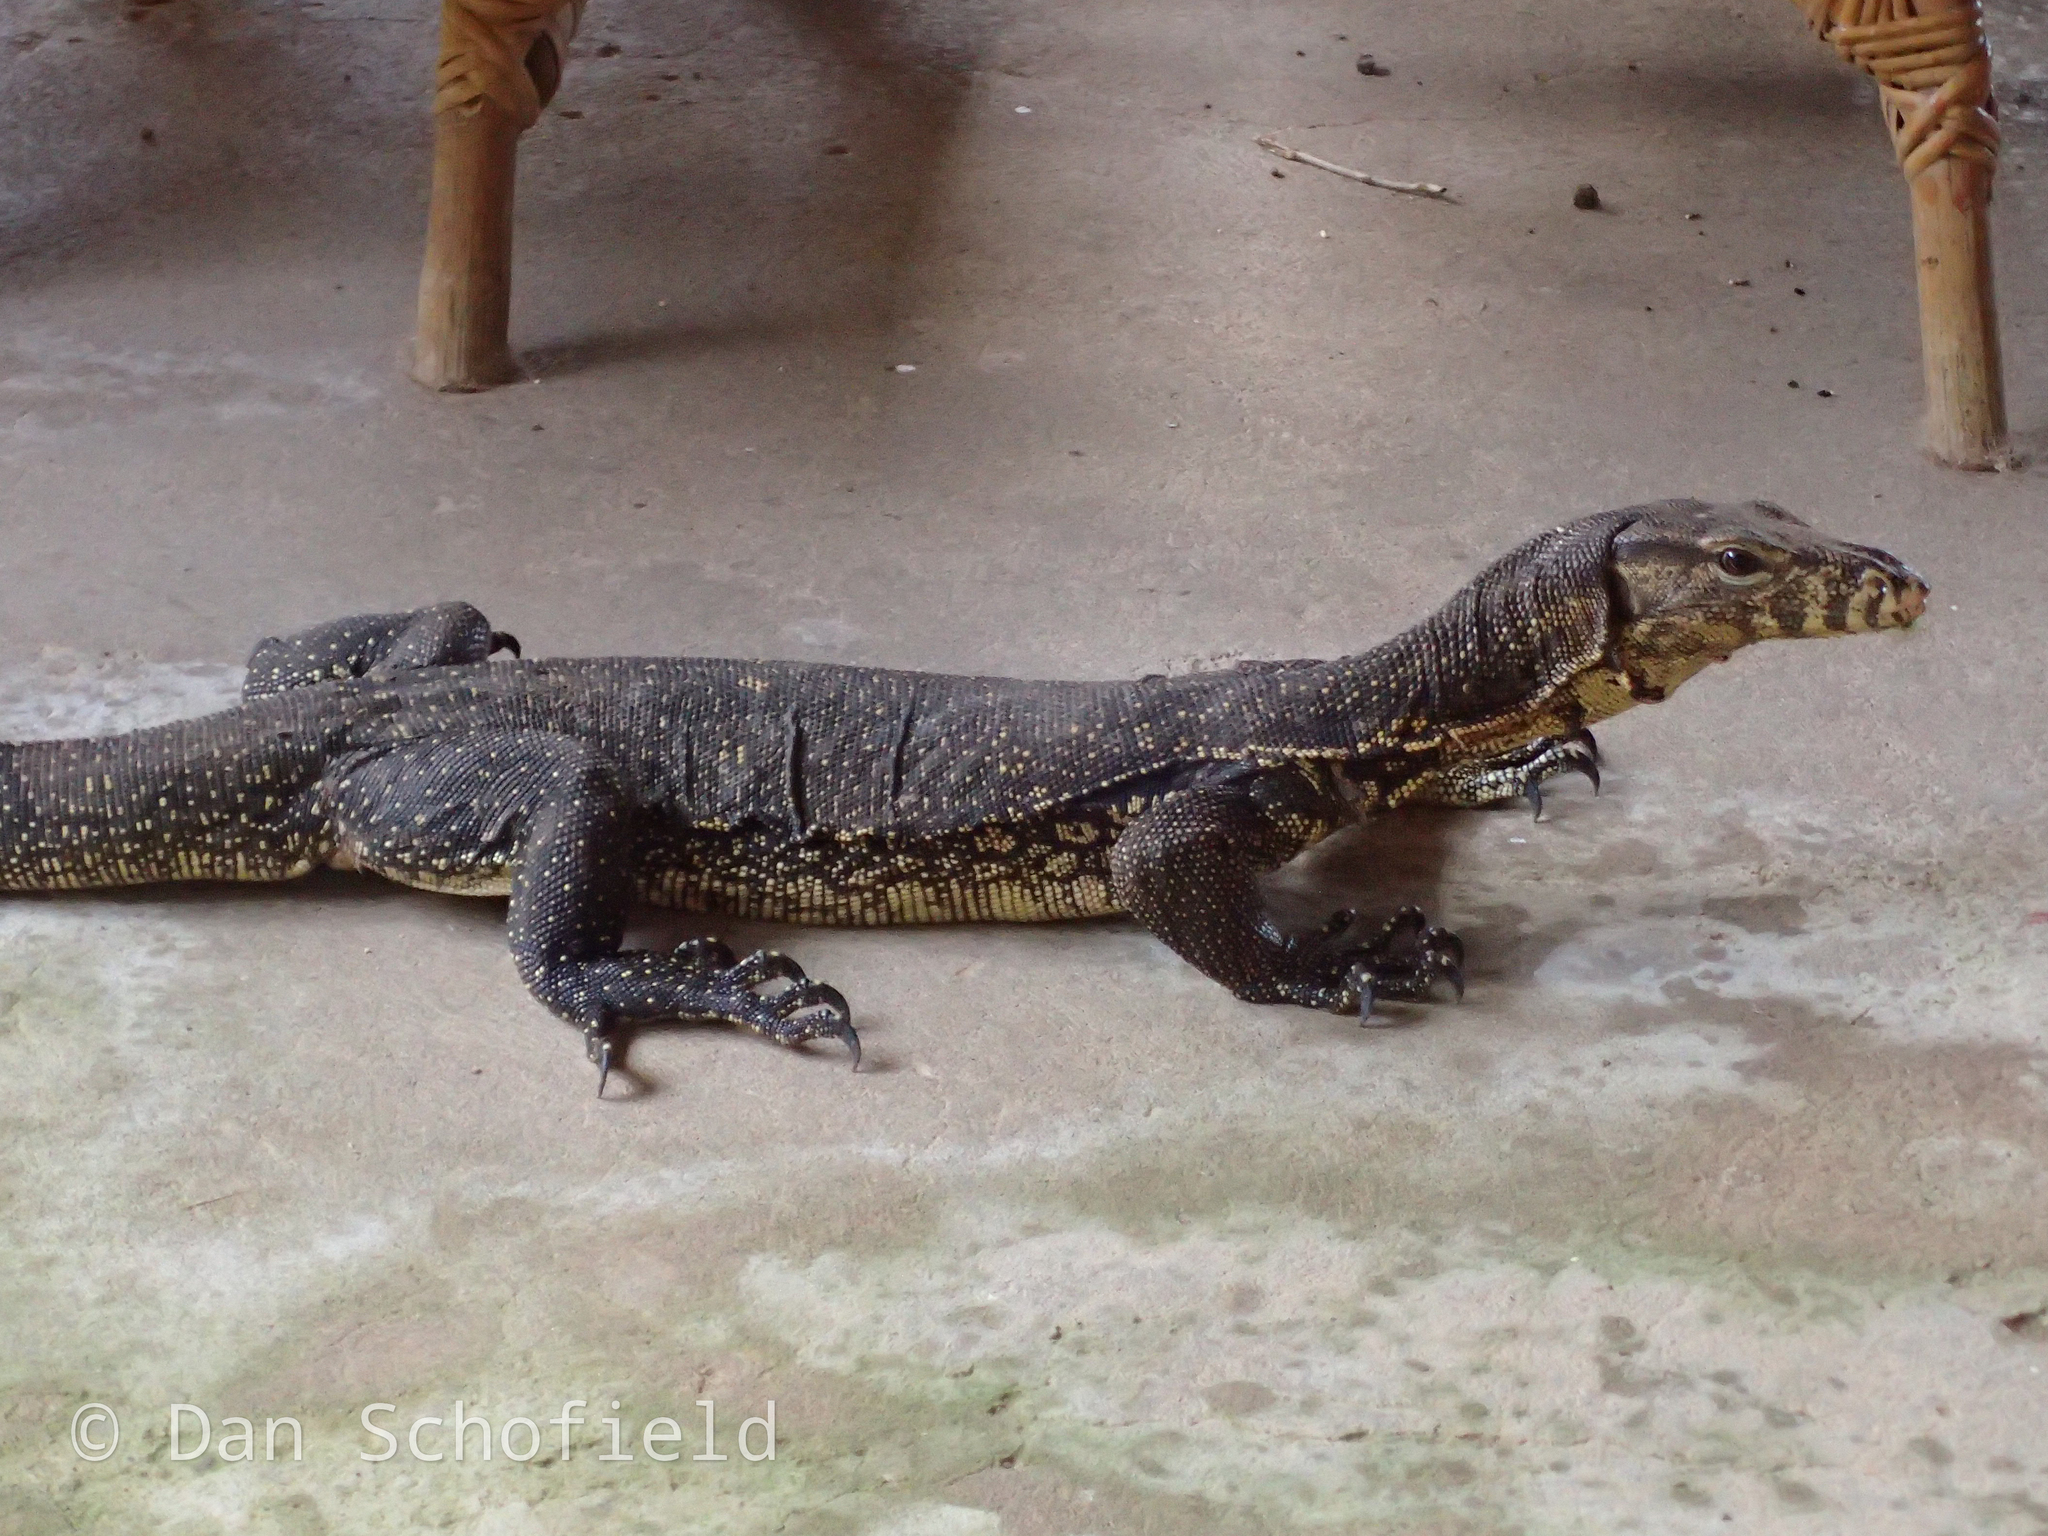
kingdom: Animalia
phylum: Chordata
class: Squamata
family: Varanidae
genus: Varanus
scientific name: Varanus salvator
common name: Common water monitor
